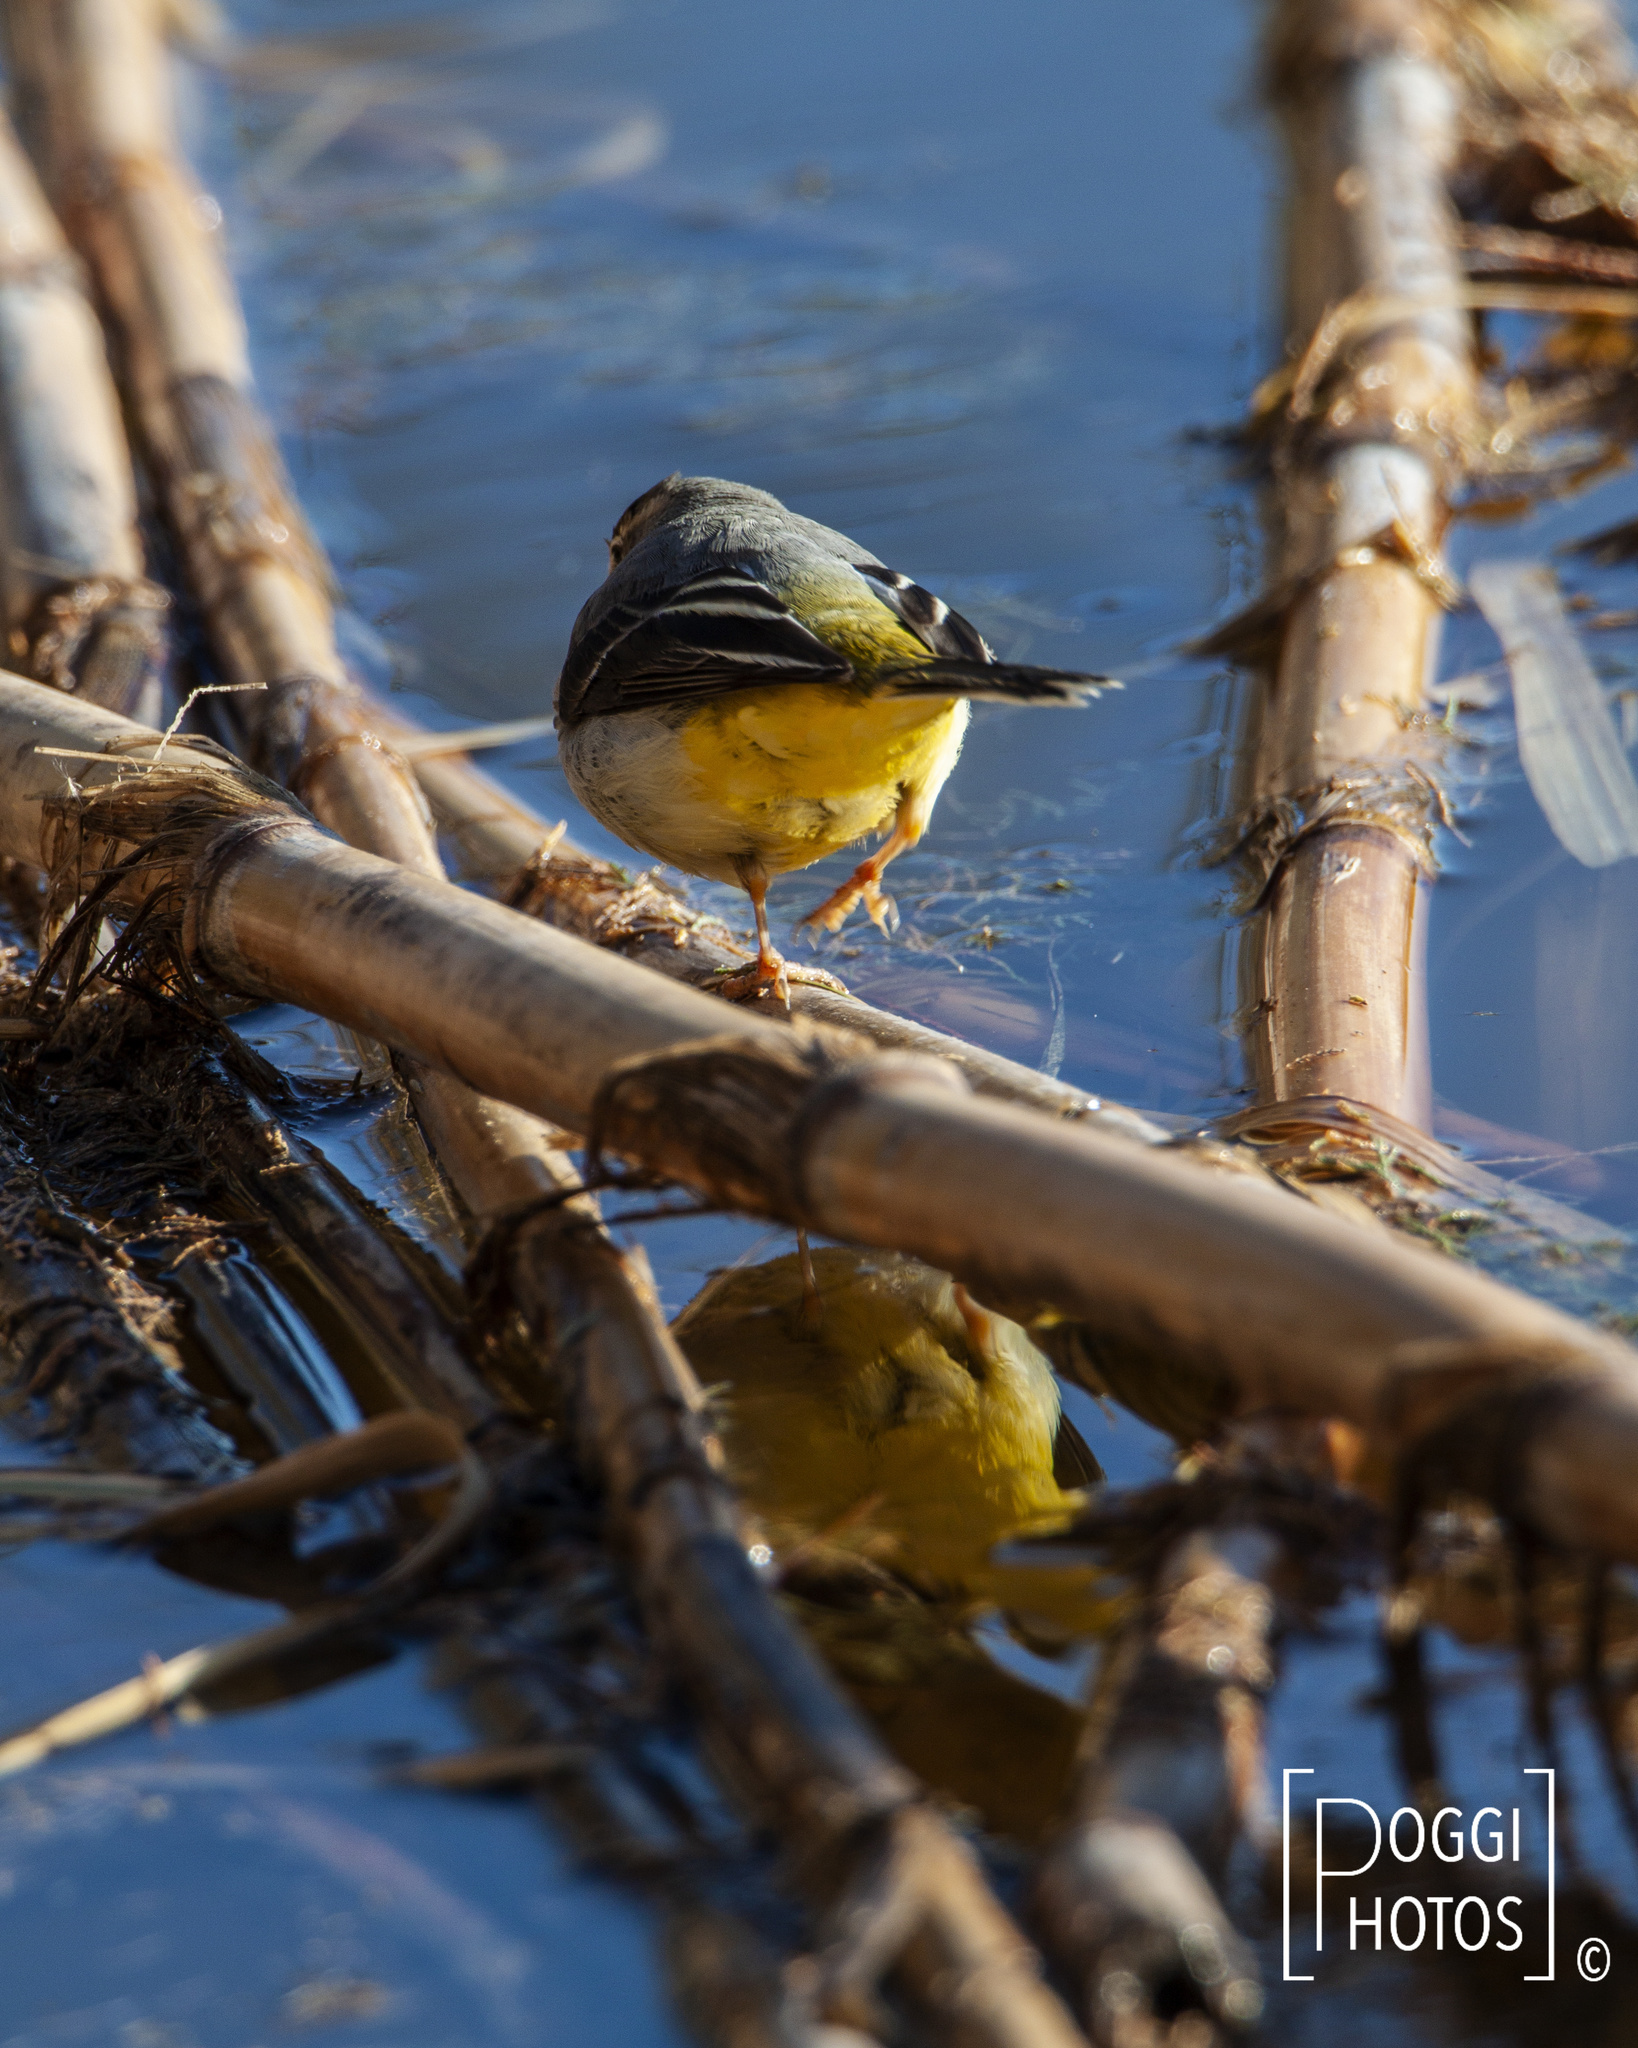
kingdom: Animalia
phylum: Chordata
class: Aves
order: Passeriformes
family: Motacillidae
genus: Motacilla
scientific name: Motacilla cinerea
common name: Grey wagtail
